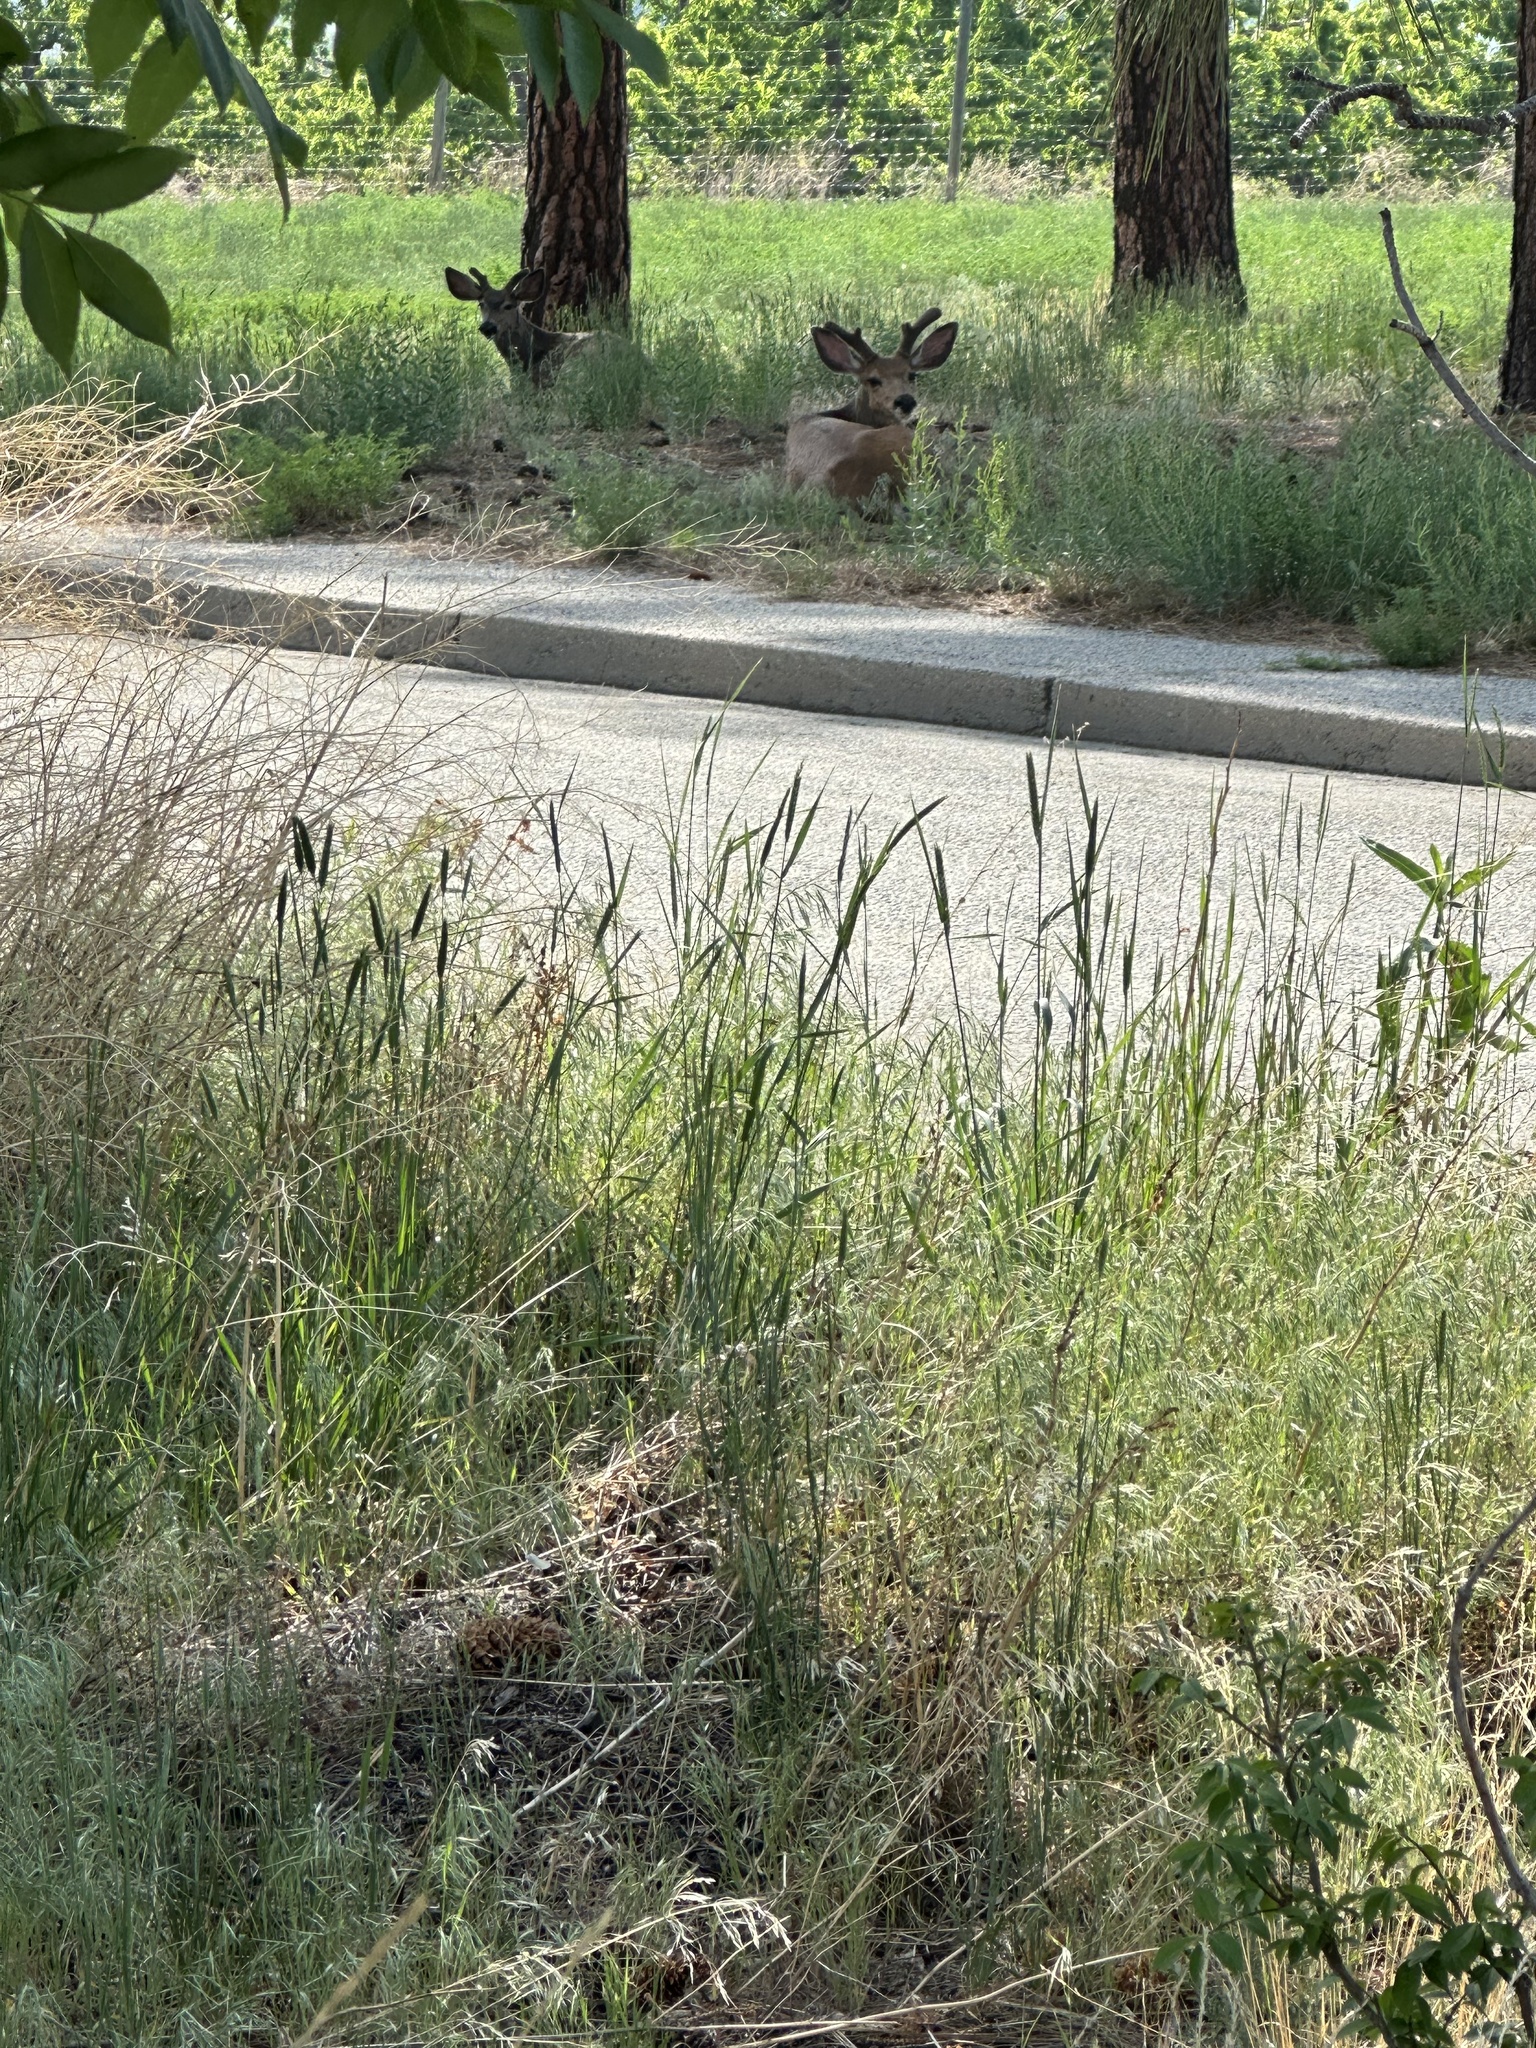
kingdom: Animalia
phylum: Chordata
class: Mammalia
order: Artiodactyla
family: Cervidae
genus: Odocoileus
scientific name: Odocoileus hemionus
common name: Mule deer
